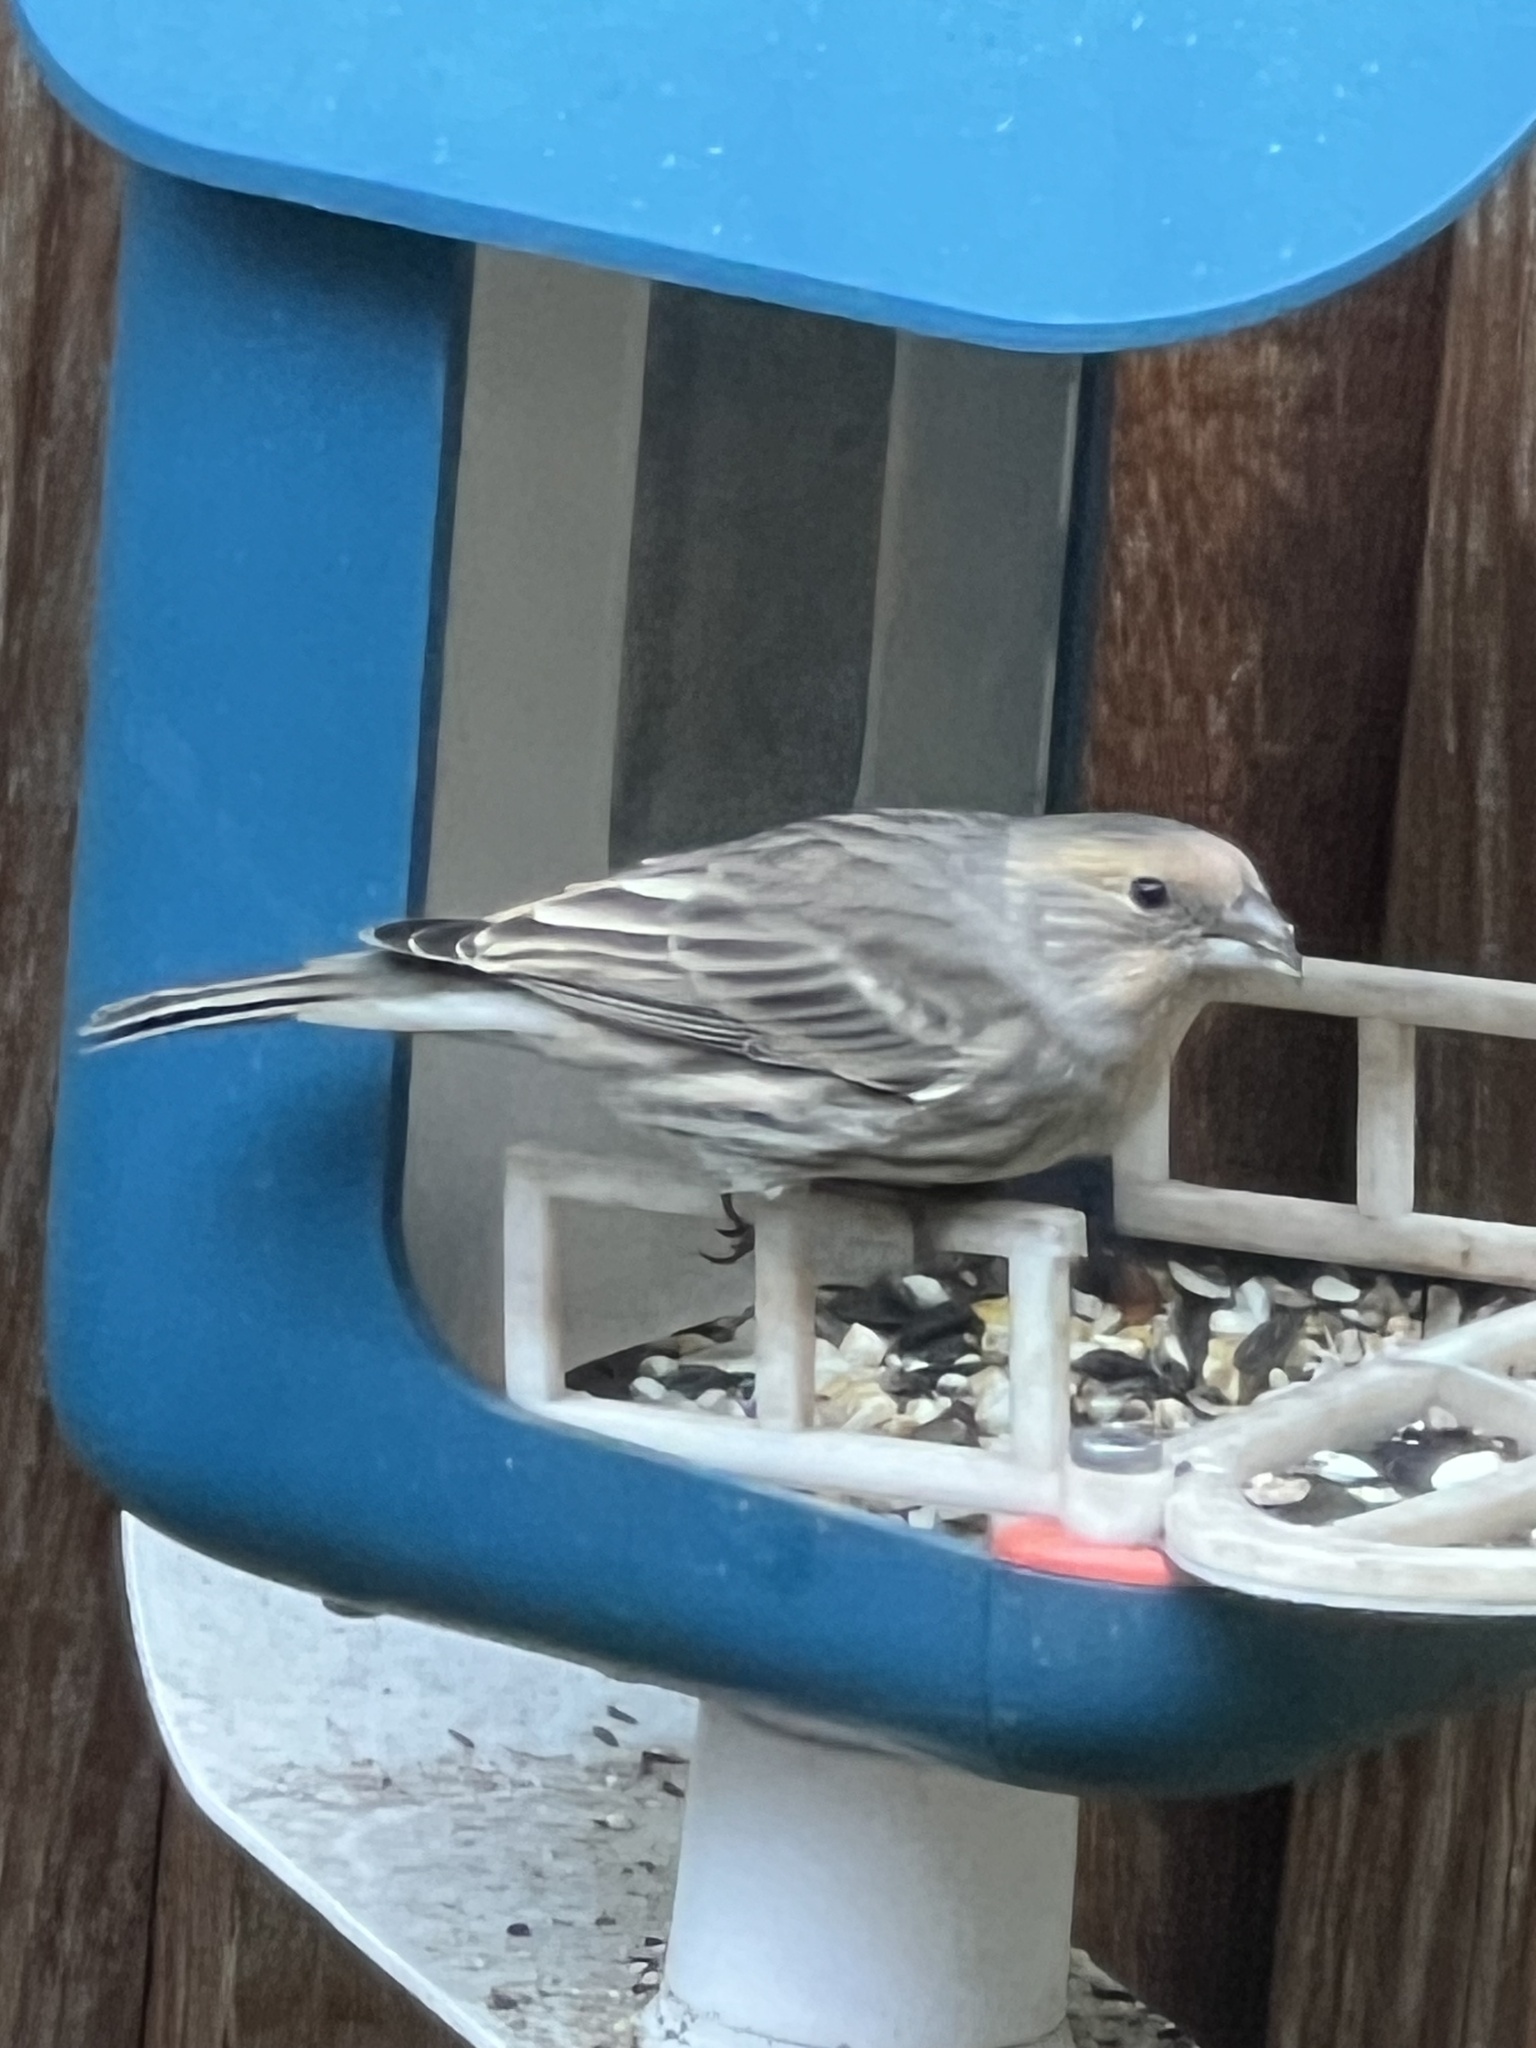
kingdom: Animalia
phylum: Chordata
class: Aves
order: Passeriformes
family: Fringillidae
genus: Haemorhous
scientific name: Haemorhous mexicanus
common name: House finch
